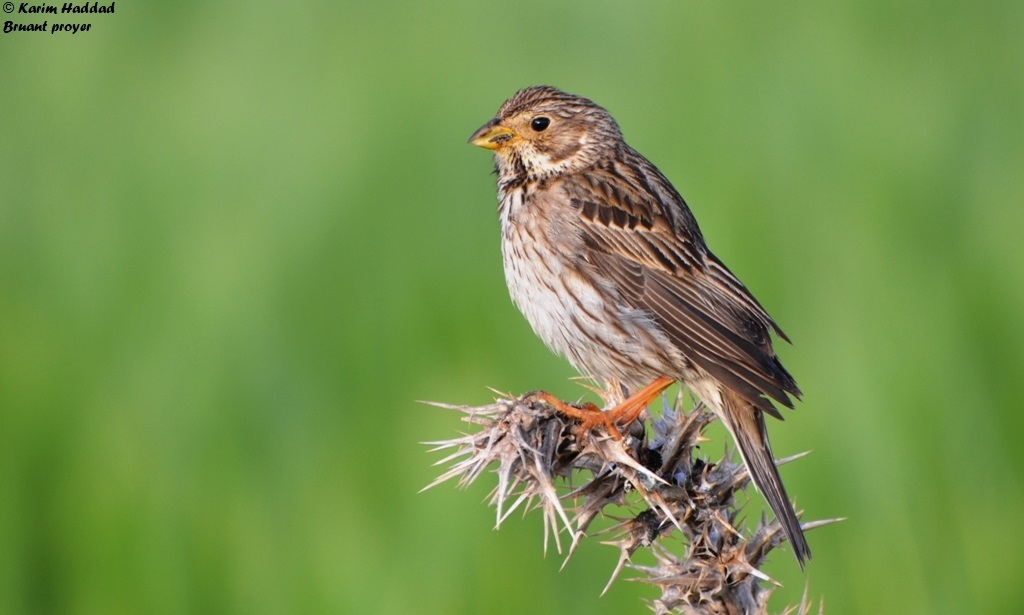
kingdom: Animalia
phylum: Chordata
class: Aves
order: Passeriformes
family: Emberizidae
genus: Emberiza
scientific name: Emberiza calandra
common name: Corn bunting
